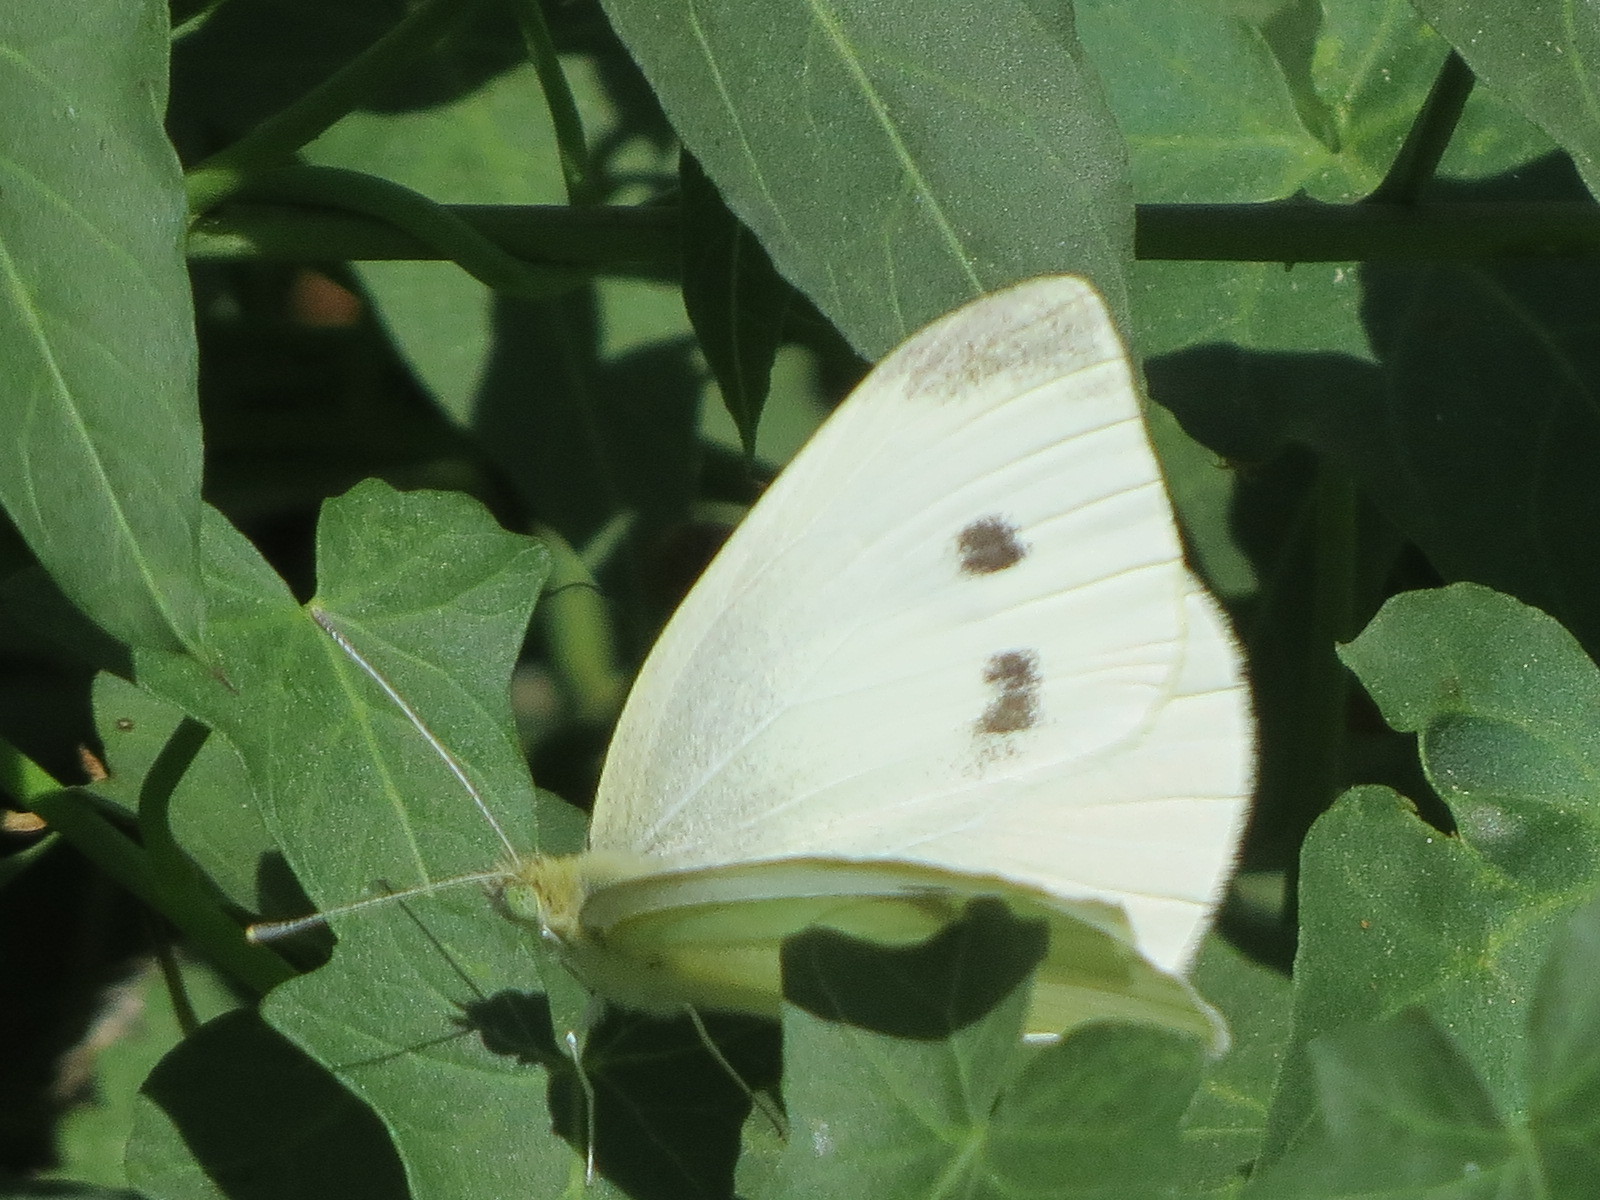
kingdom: Animalia
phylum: Arthropoda
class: Insecta
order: Lepidoptera
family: Pieridae
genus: Pieris
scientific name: Pieris rapae
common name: Small white
